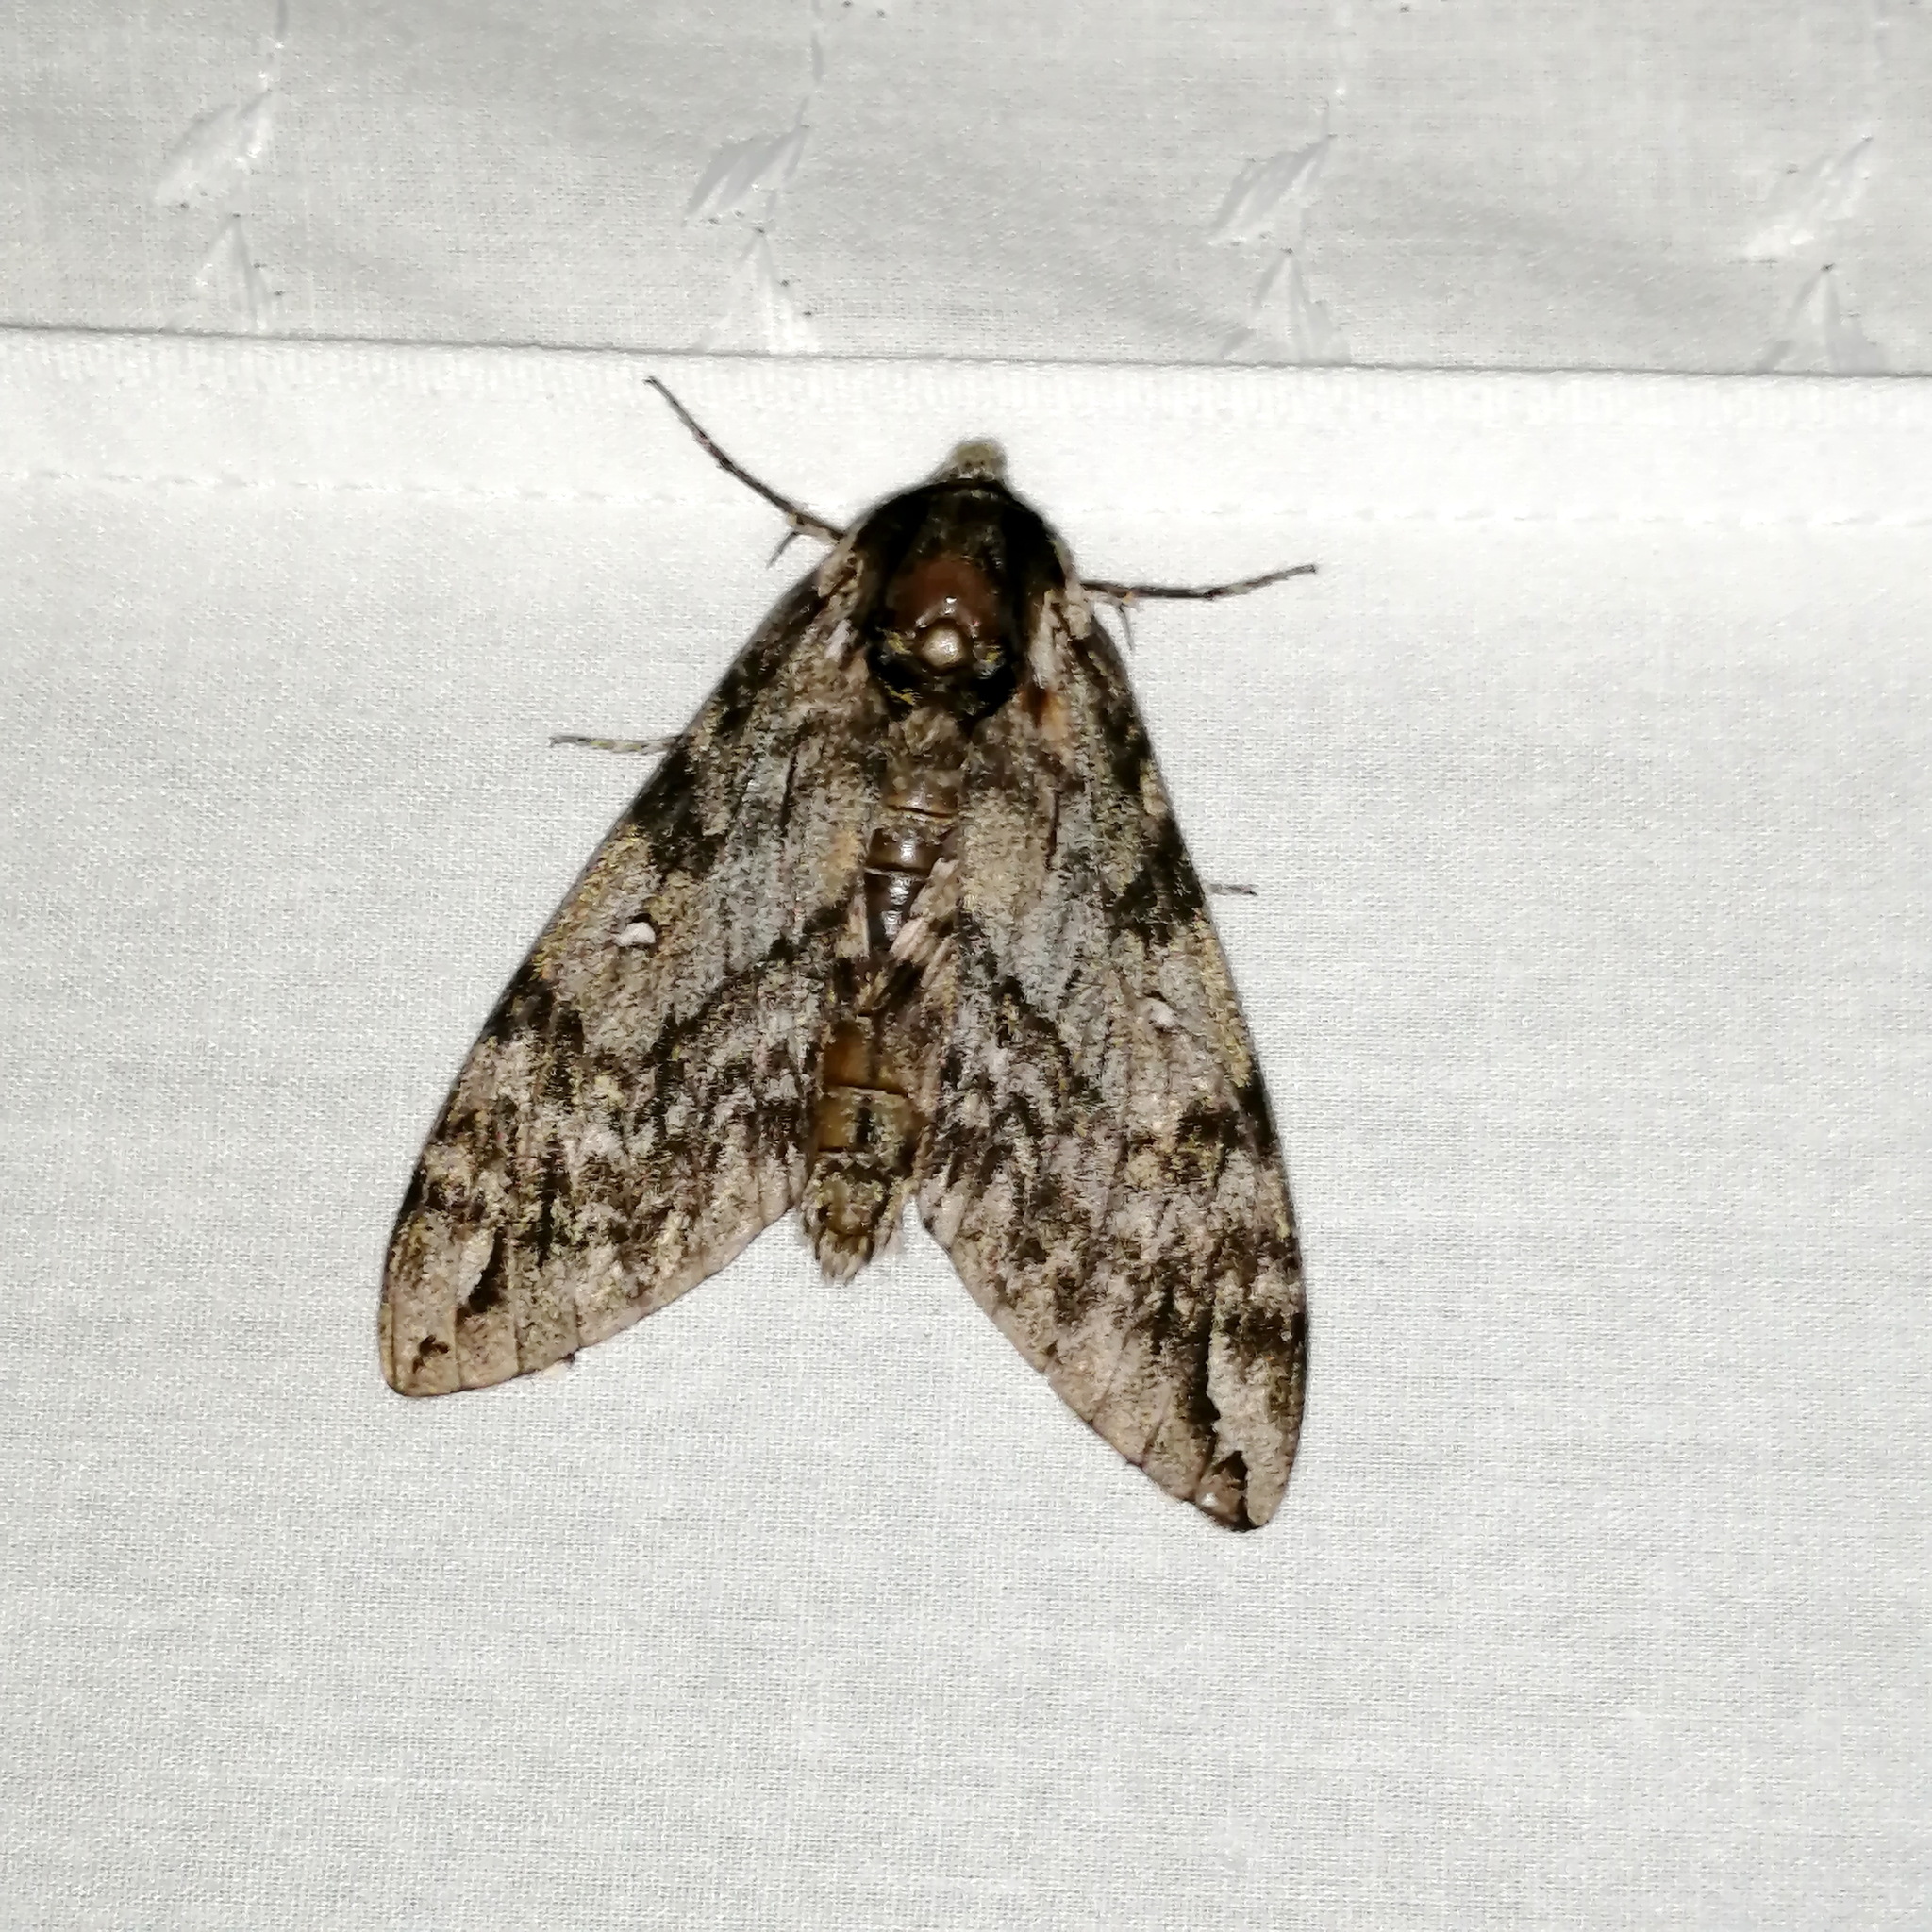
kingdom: Animalia
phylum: Arthropoda
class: Insecta
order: Lepidoptera
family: Sphingidae
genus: Ceratomia
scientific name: Ceratomia undulosa
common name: Waved sphinx
